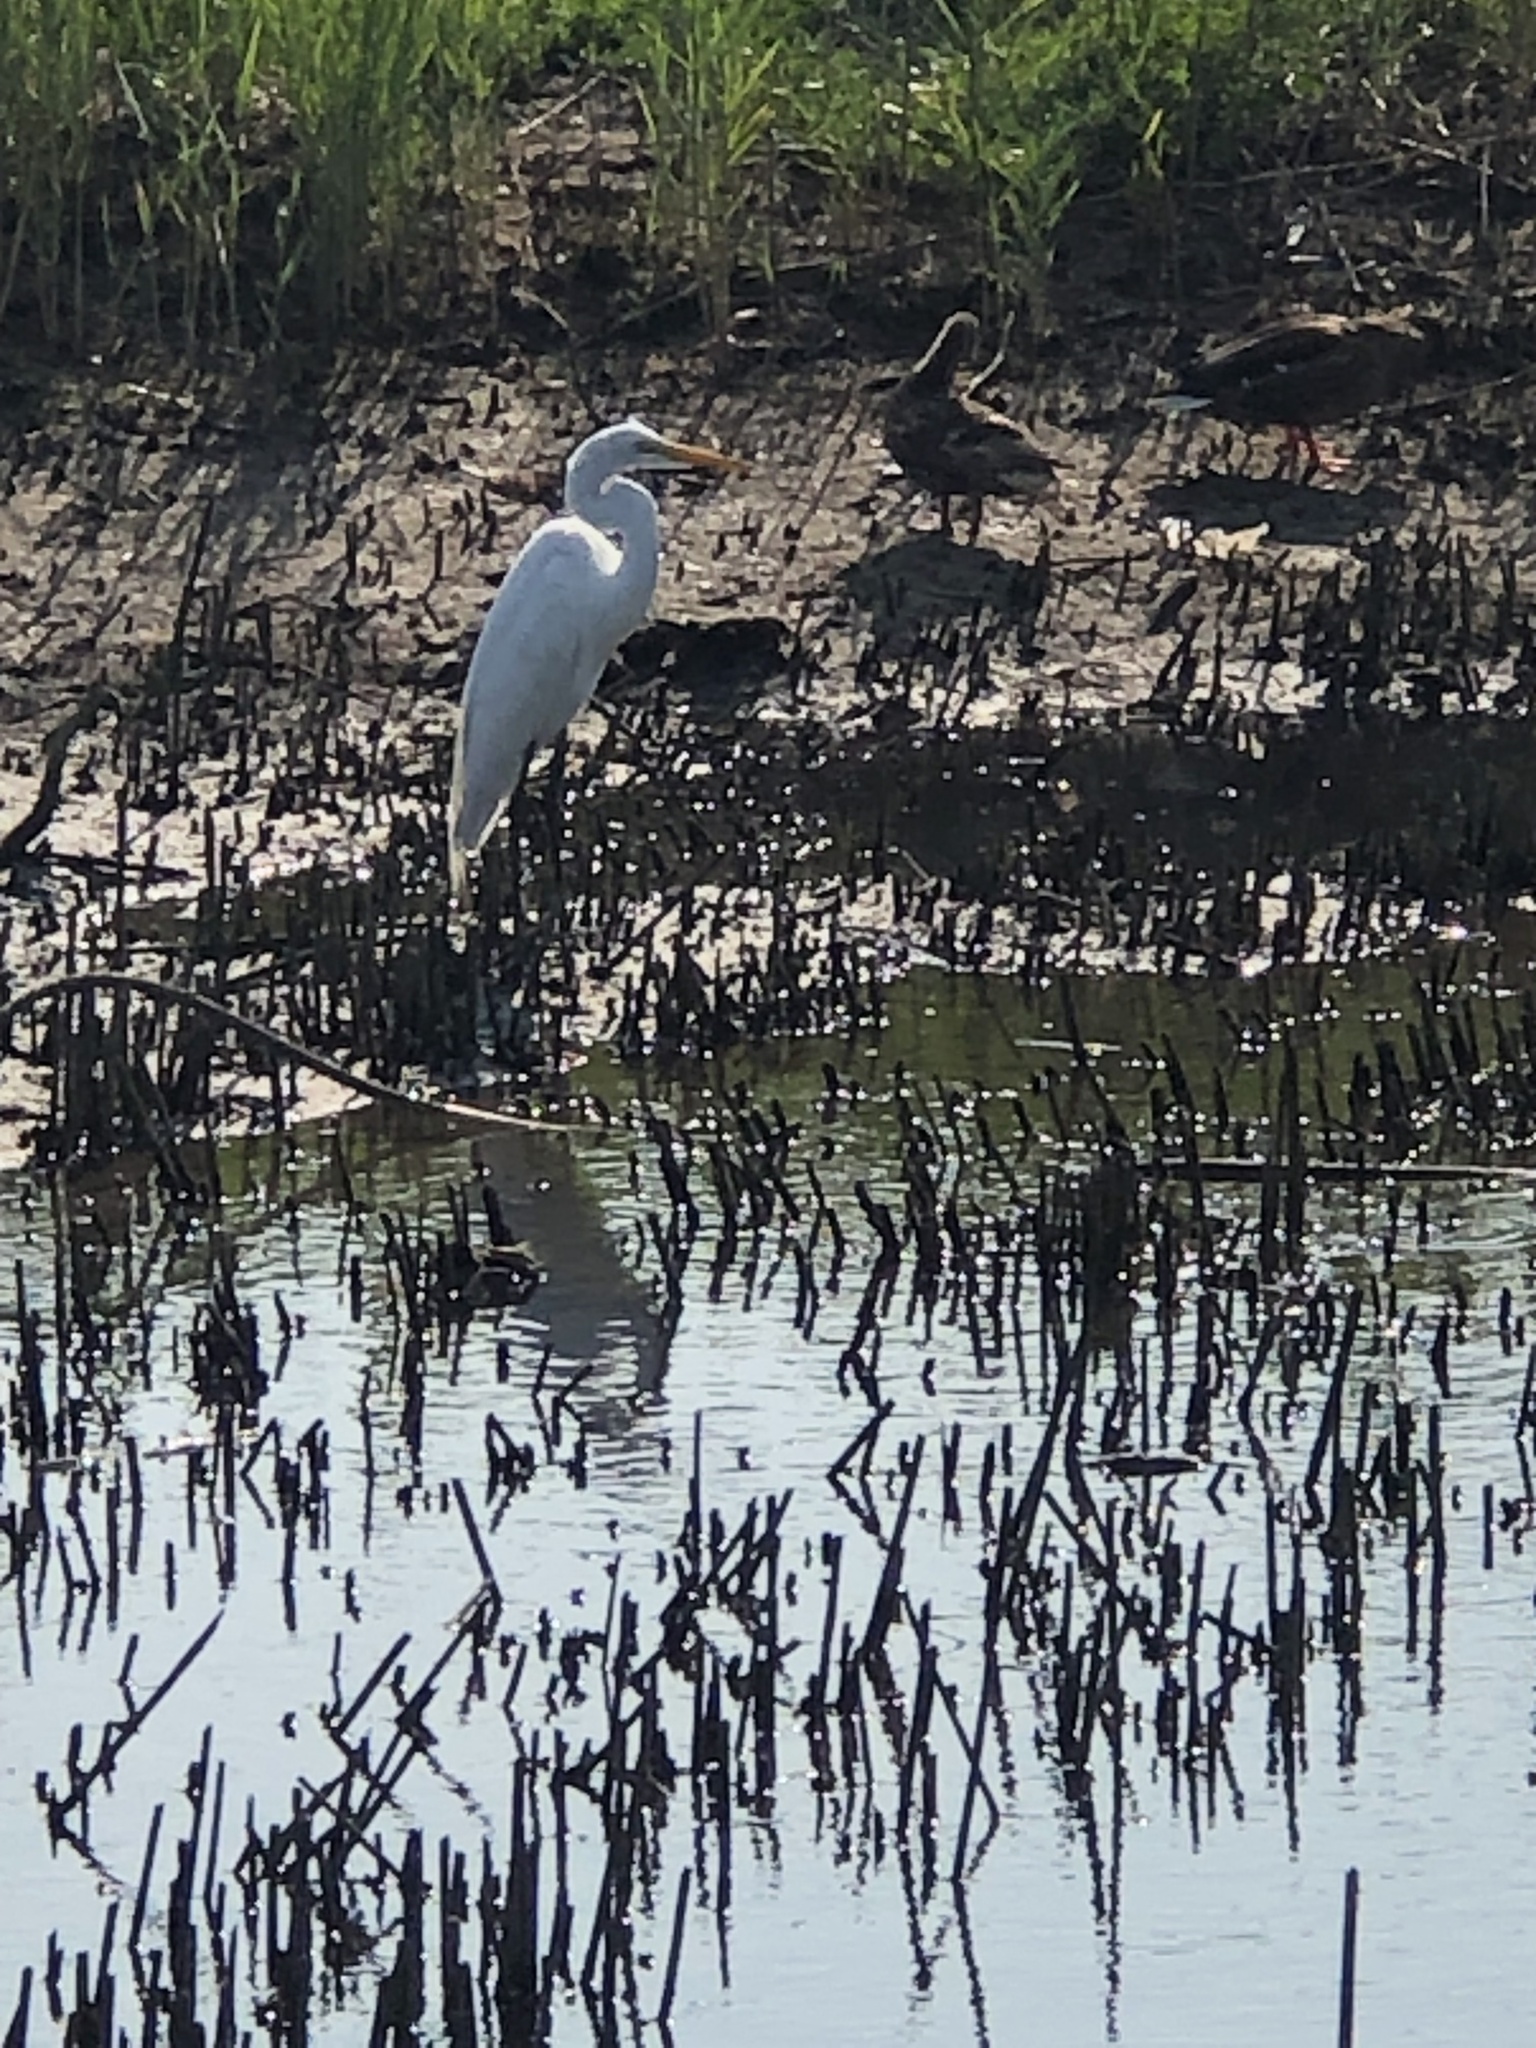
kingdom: Animalia
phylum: Chordata
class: Aves
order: Pelecaniformes
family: Ardeidae
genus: Ardea
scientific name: Ardea alba
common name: Great egret
